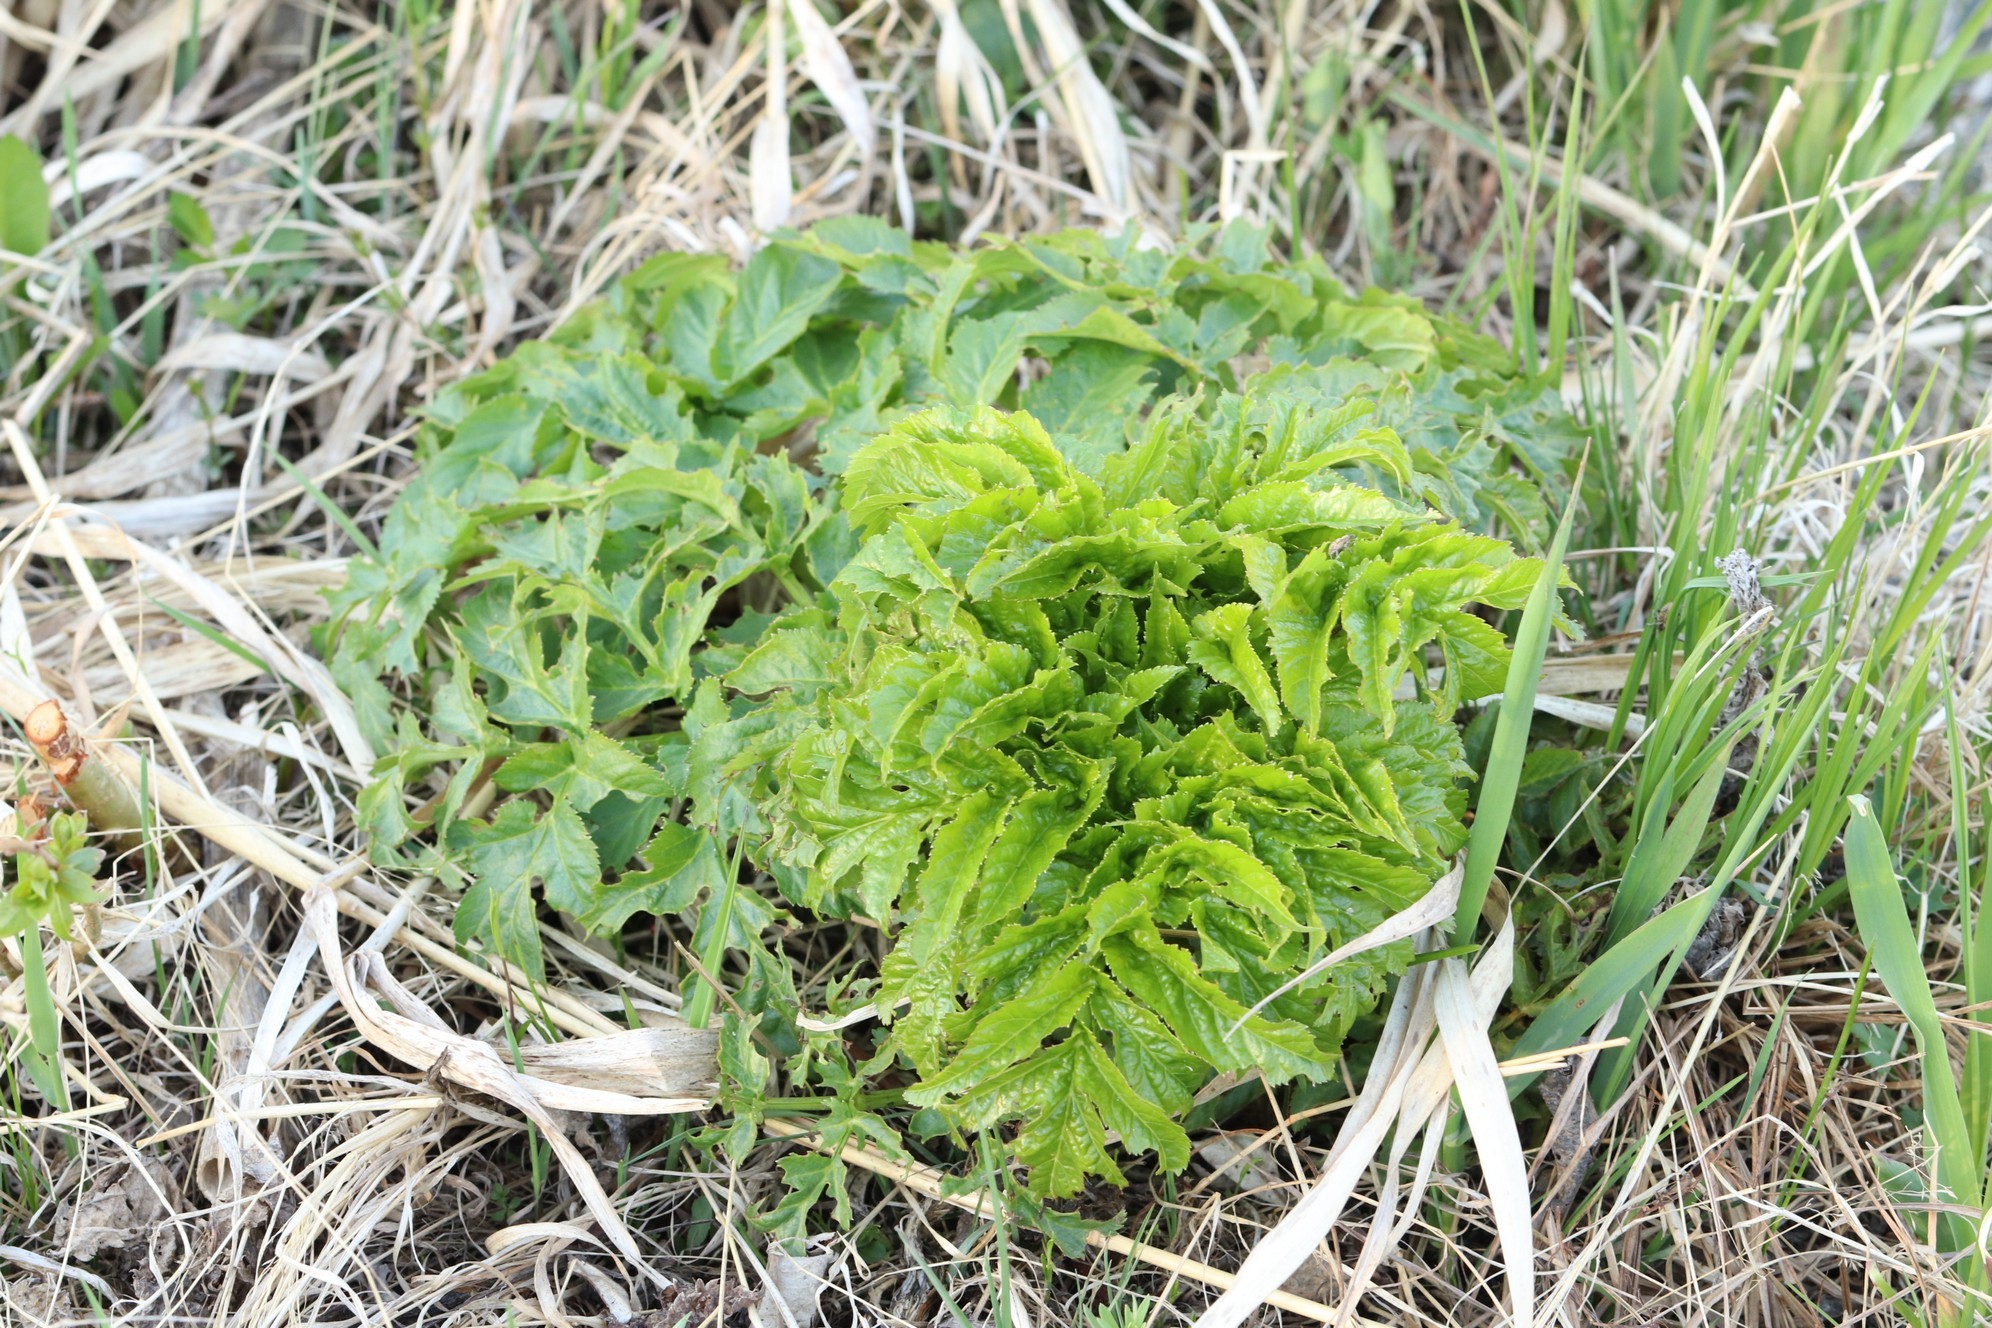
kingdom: Plantae
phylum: Tracheophyta
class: Magnoliopsida
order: Apiales
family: Apiaceae
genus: Angelica
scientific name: Angelica decurrens
